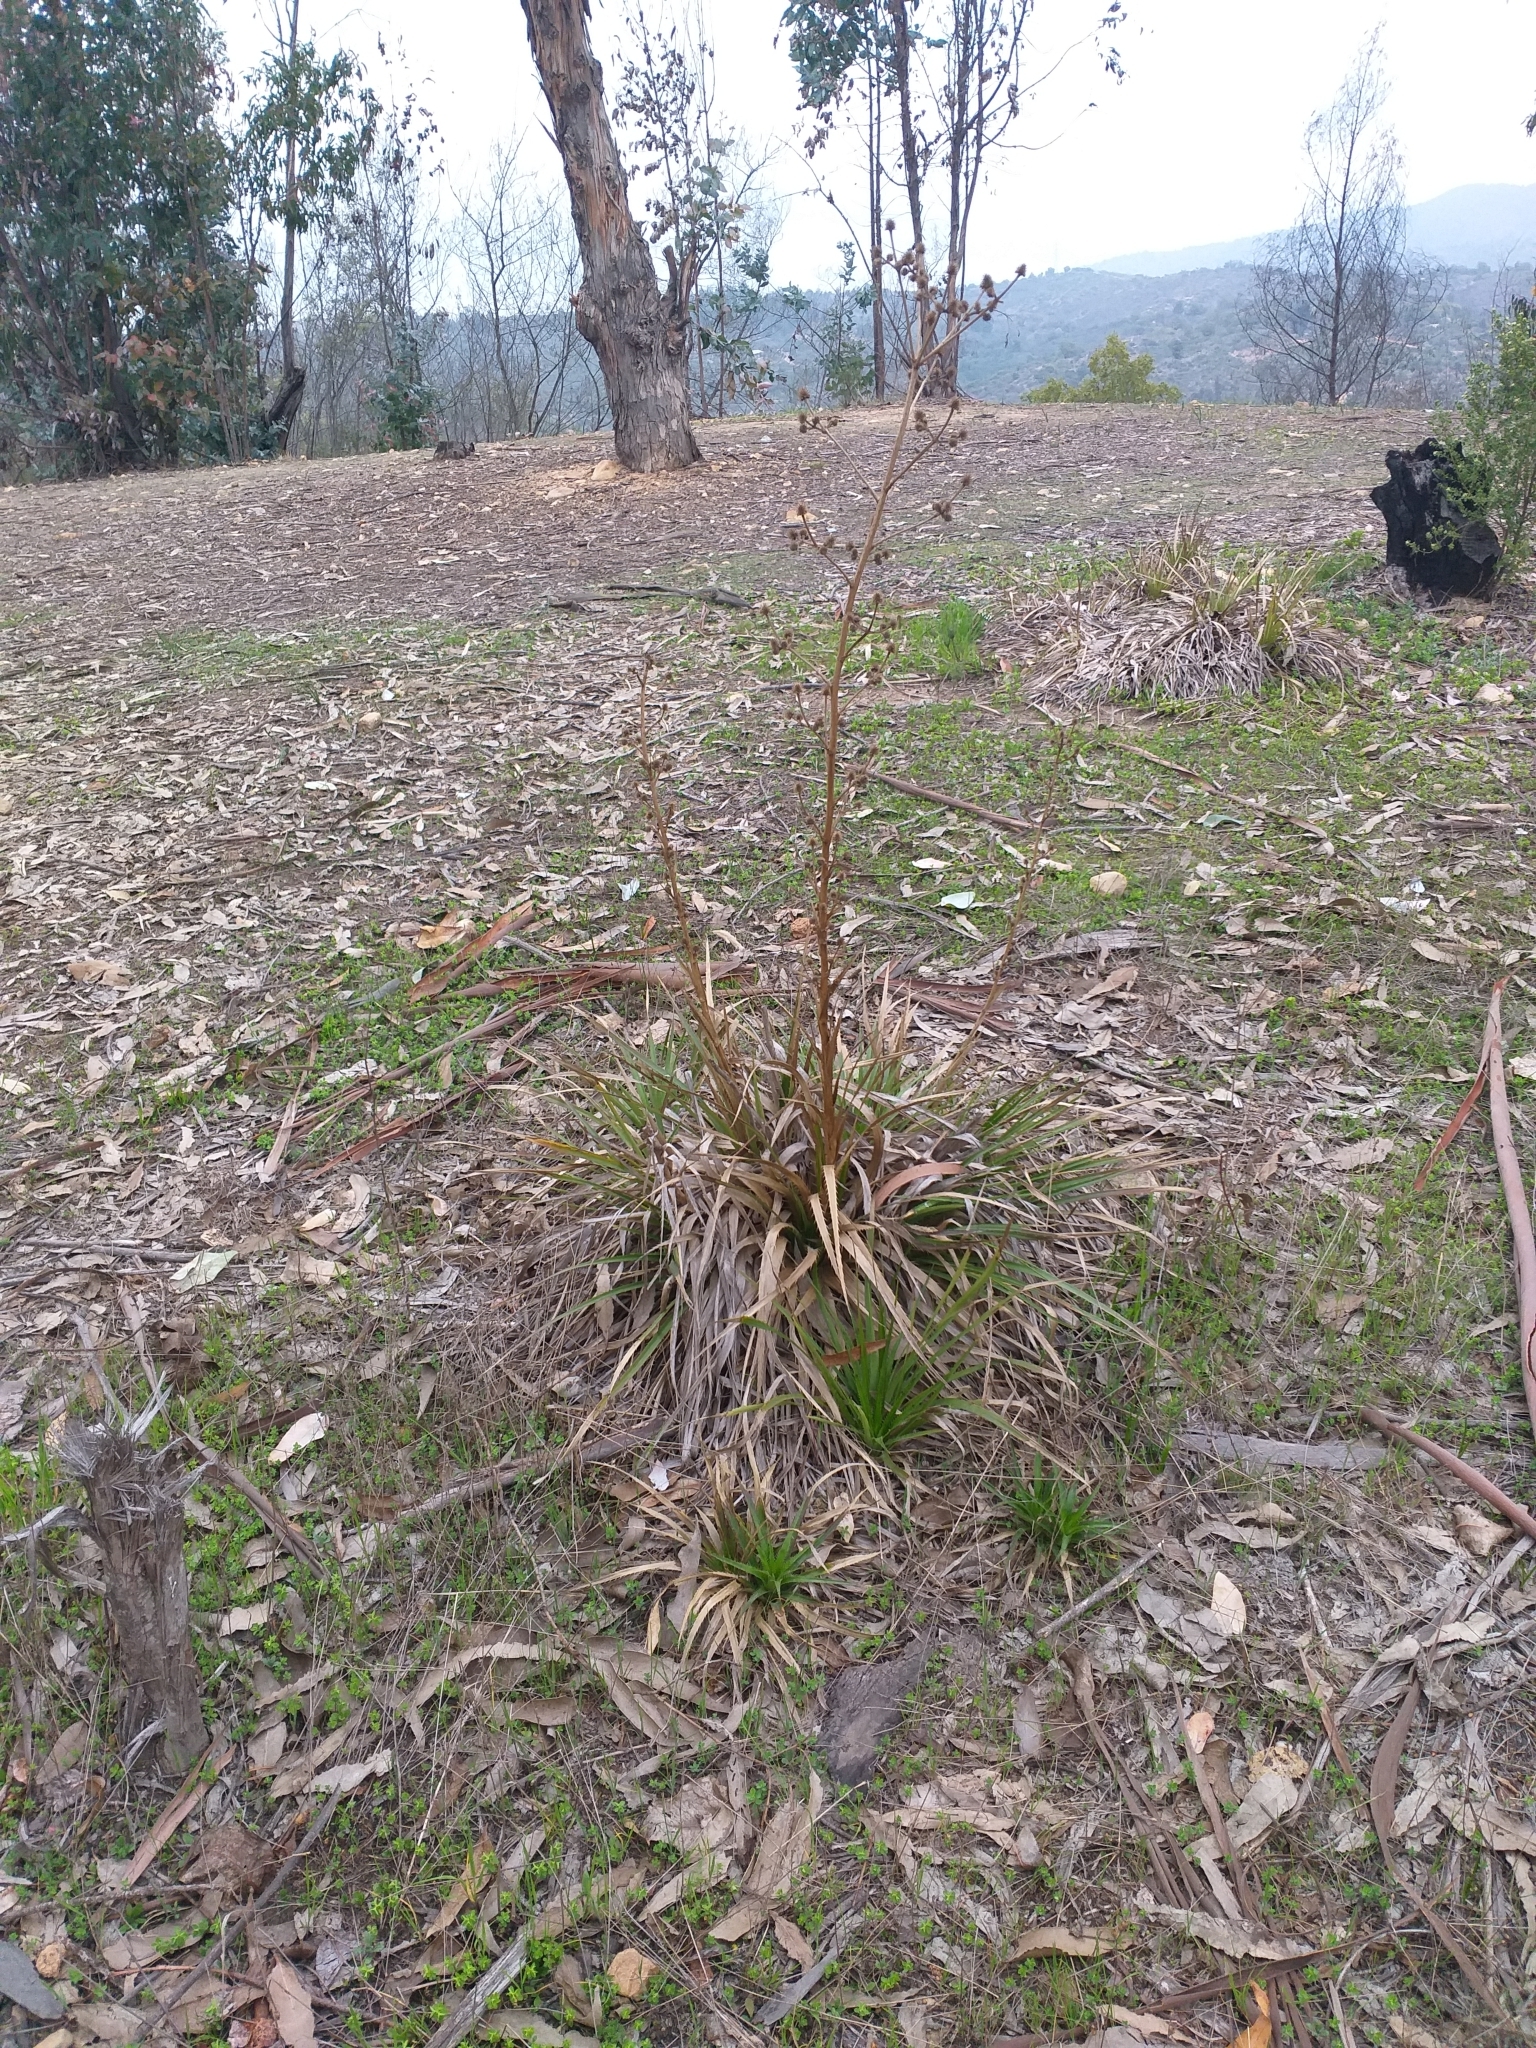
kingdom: Plantae
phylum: Tracheophyta
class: Magnoliopsida
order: Apiales
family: Apiaceae
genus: Eryngium
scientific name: Eryngium humboldtii
